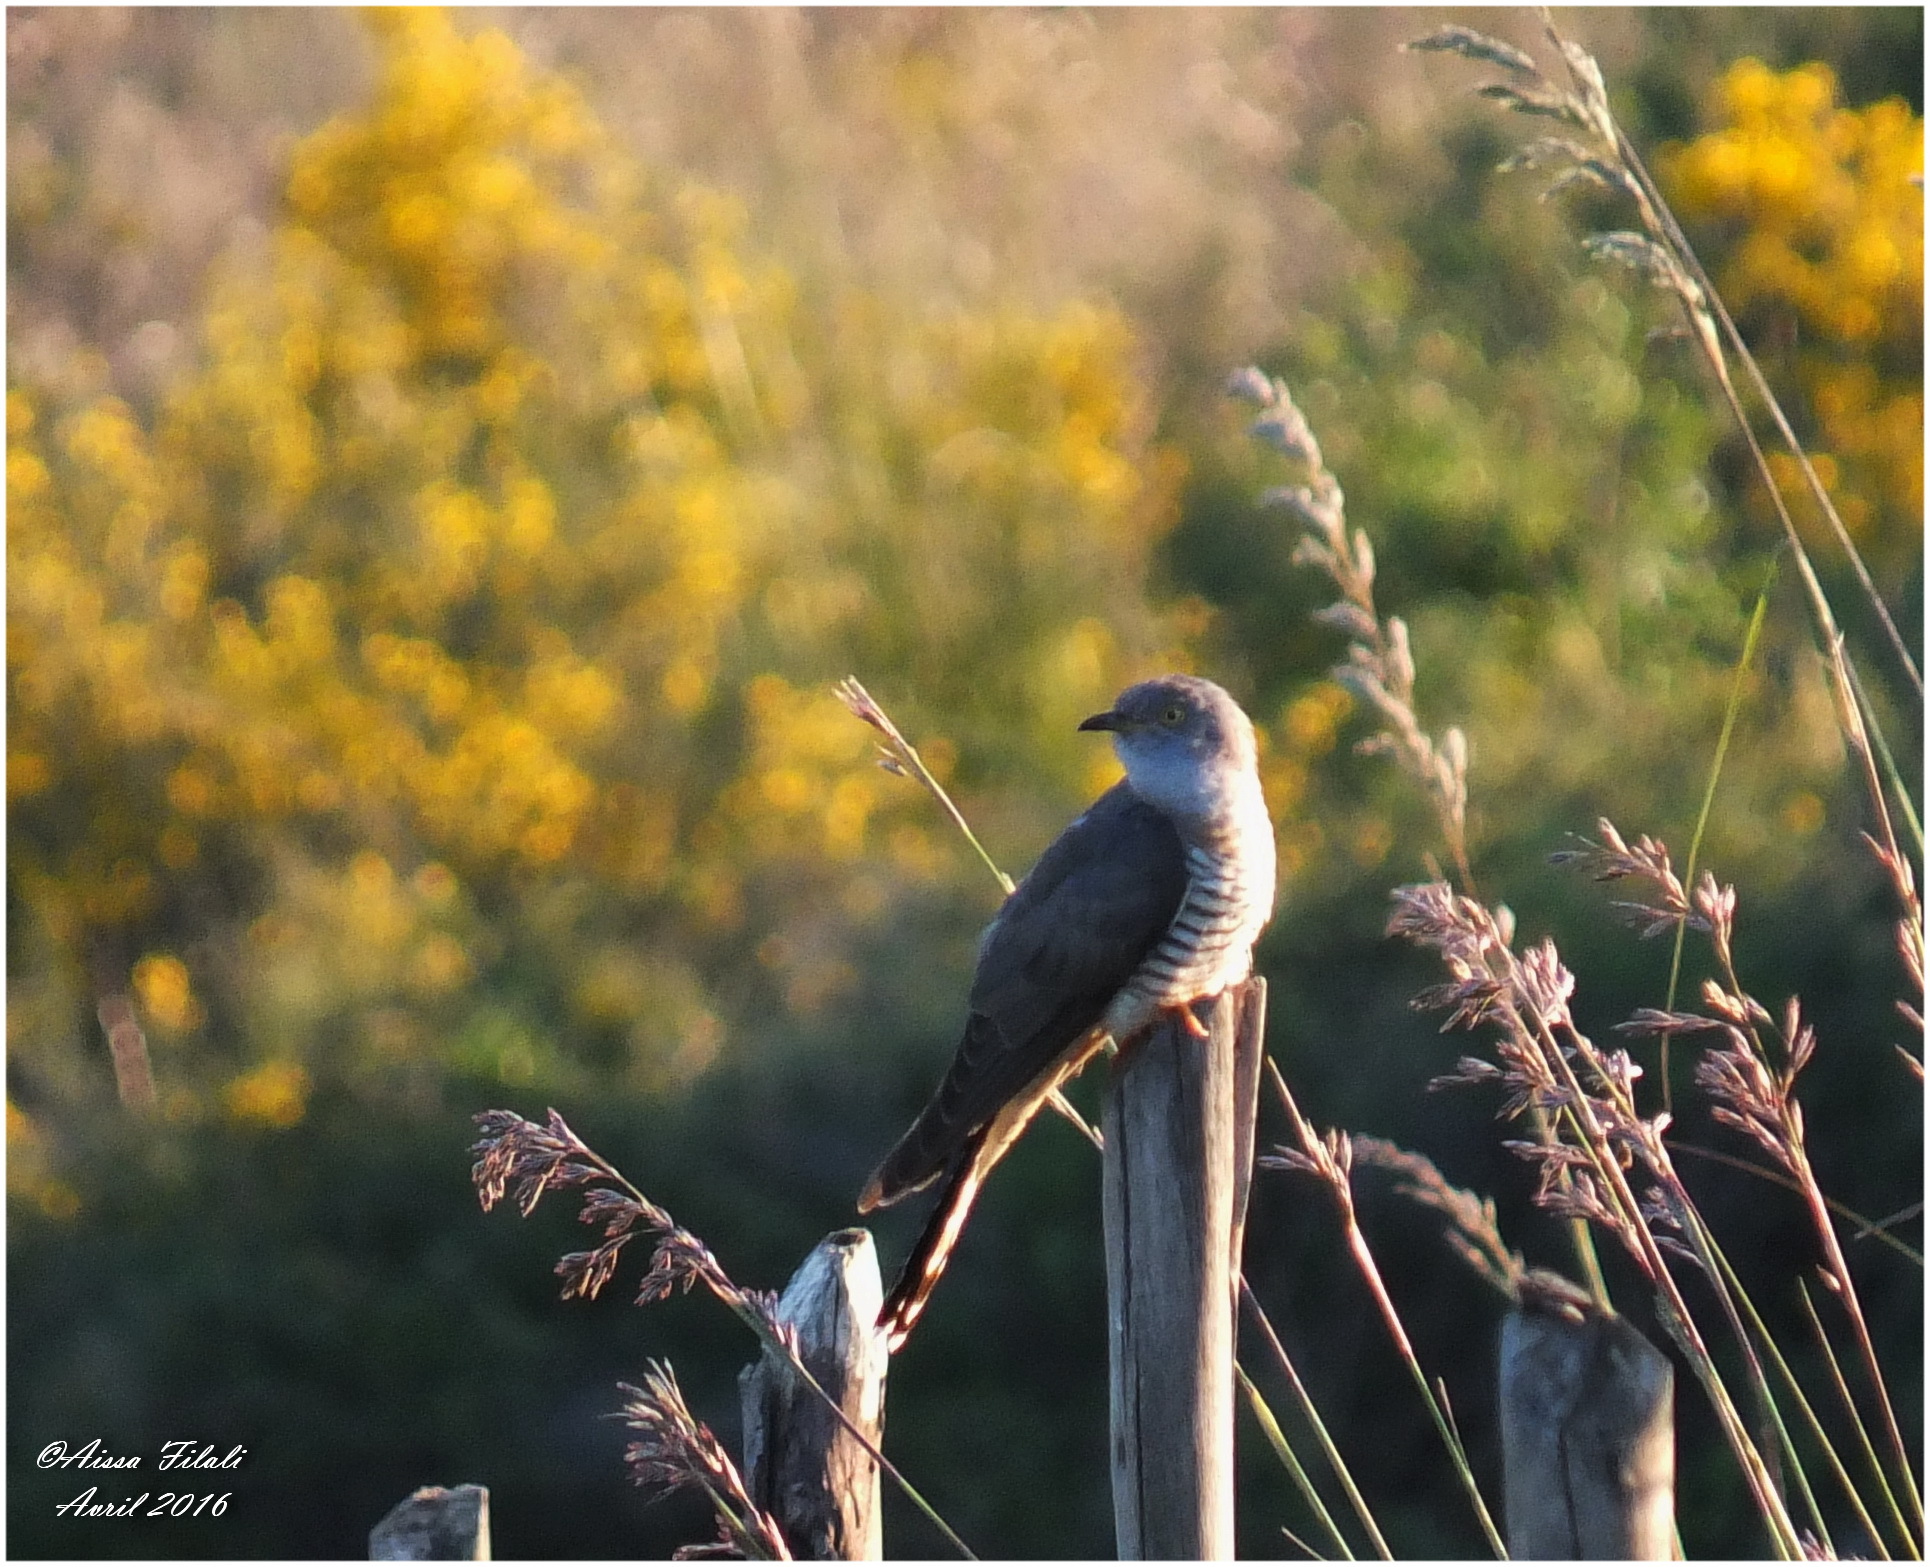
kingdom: Animalia
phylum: Chordata
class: Aves
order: Cuculiformes
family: Cuculidae
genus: Cuculus
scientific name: Cuculus canorus
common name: Common cuckoo
